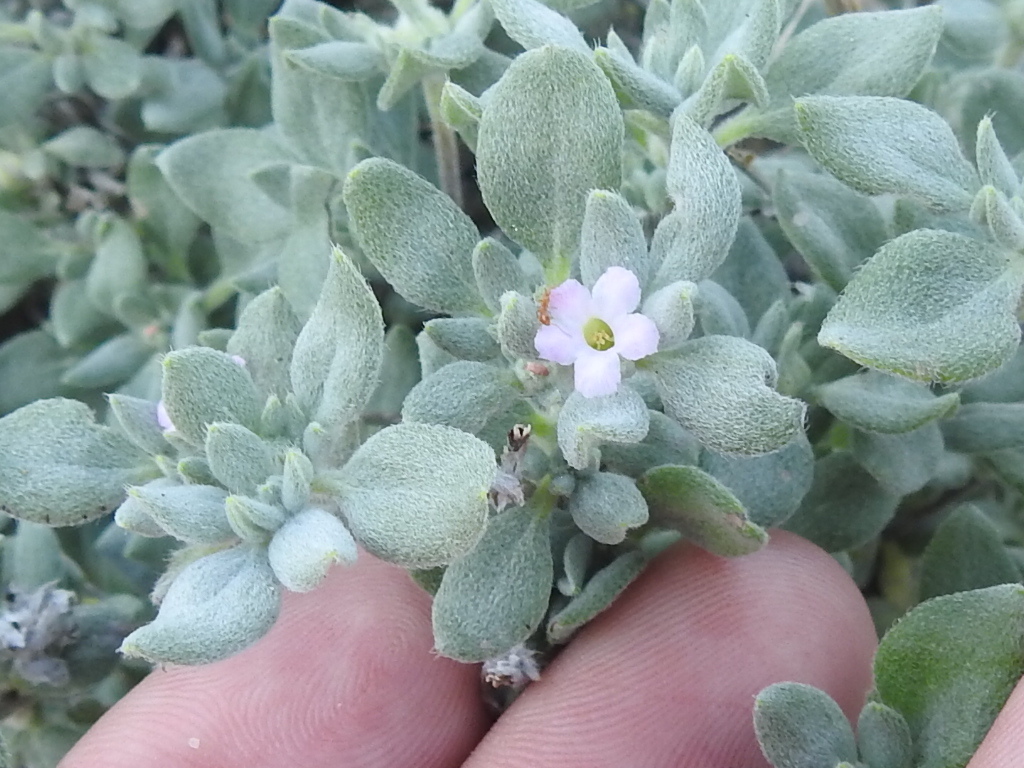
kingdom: Plantae
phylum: Tracheophyta
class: Magnoliopsida
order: Boraginales
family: Ehretiaceae
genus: Tiquilia
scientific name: Tiquilia canescens
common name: Hairy tiquilia
